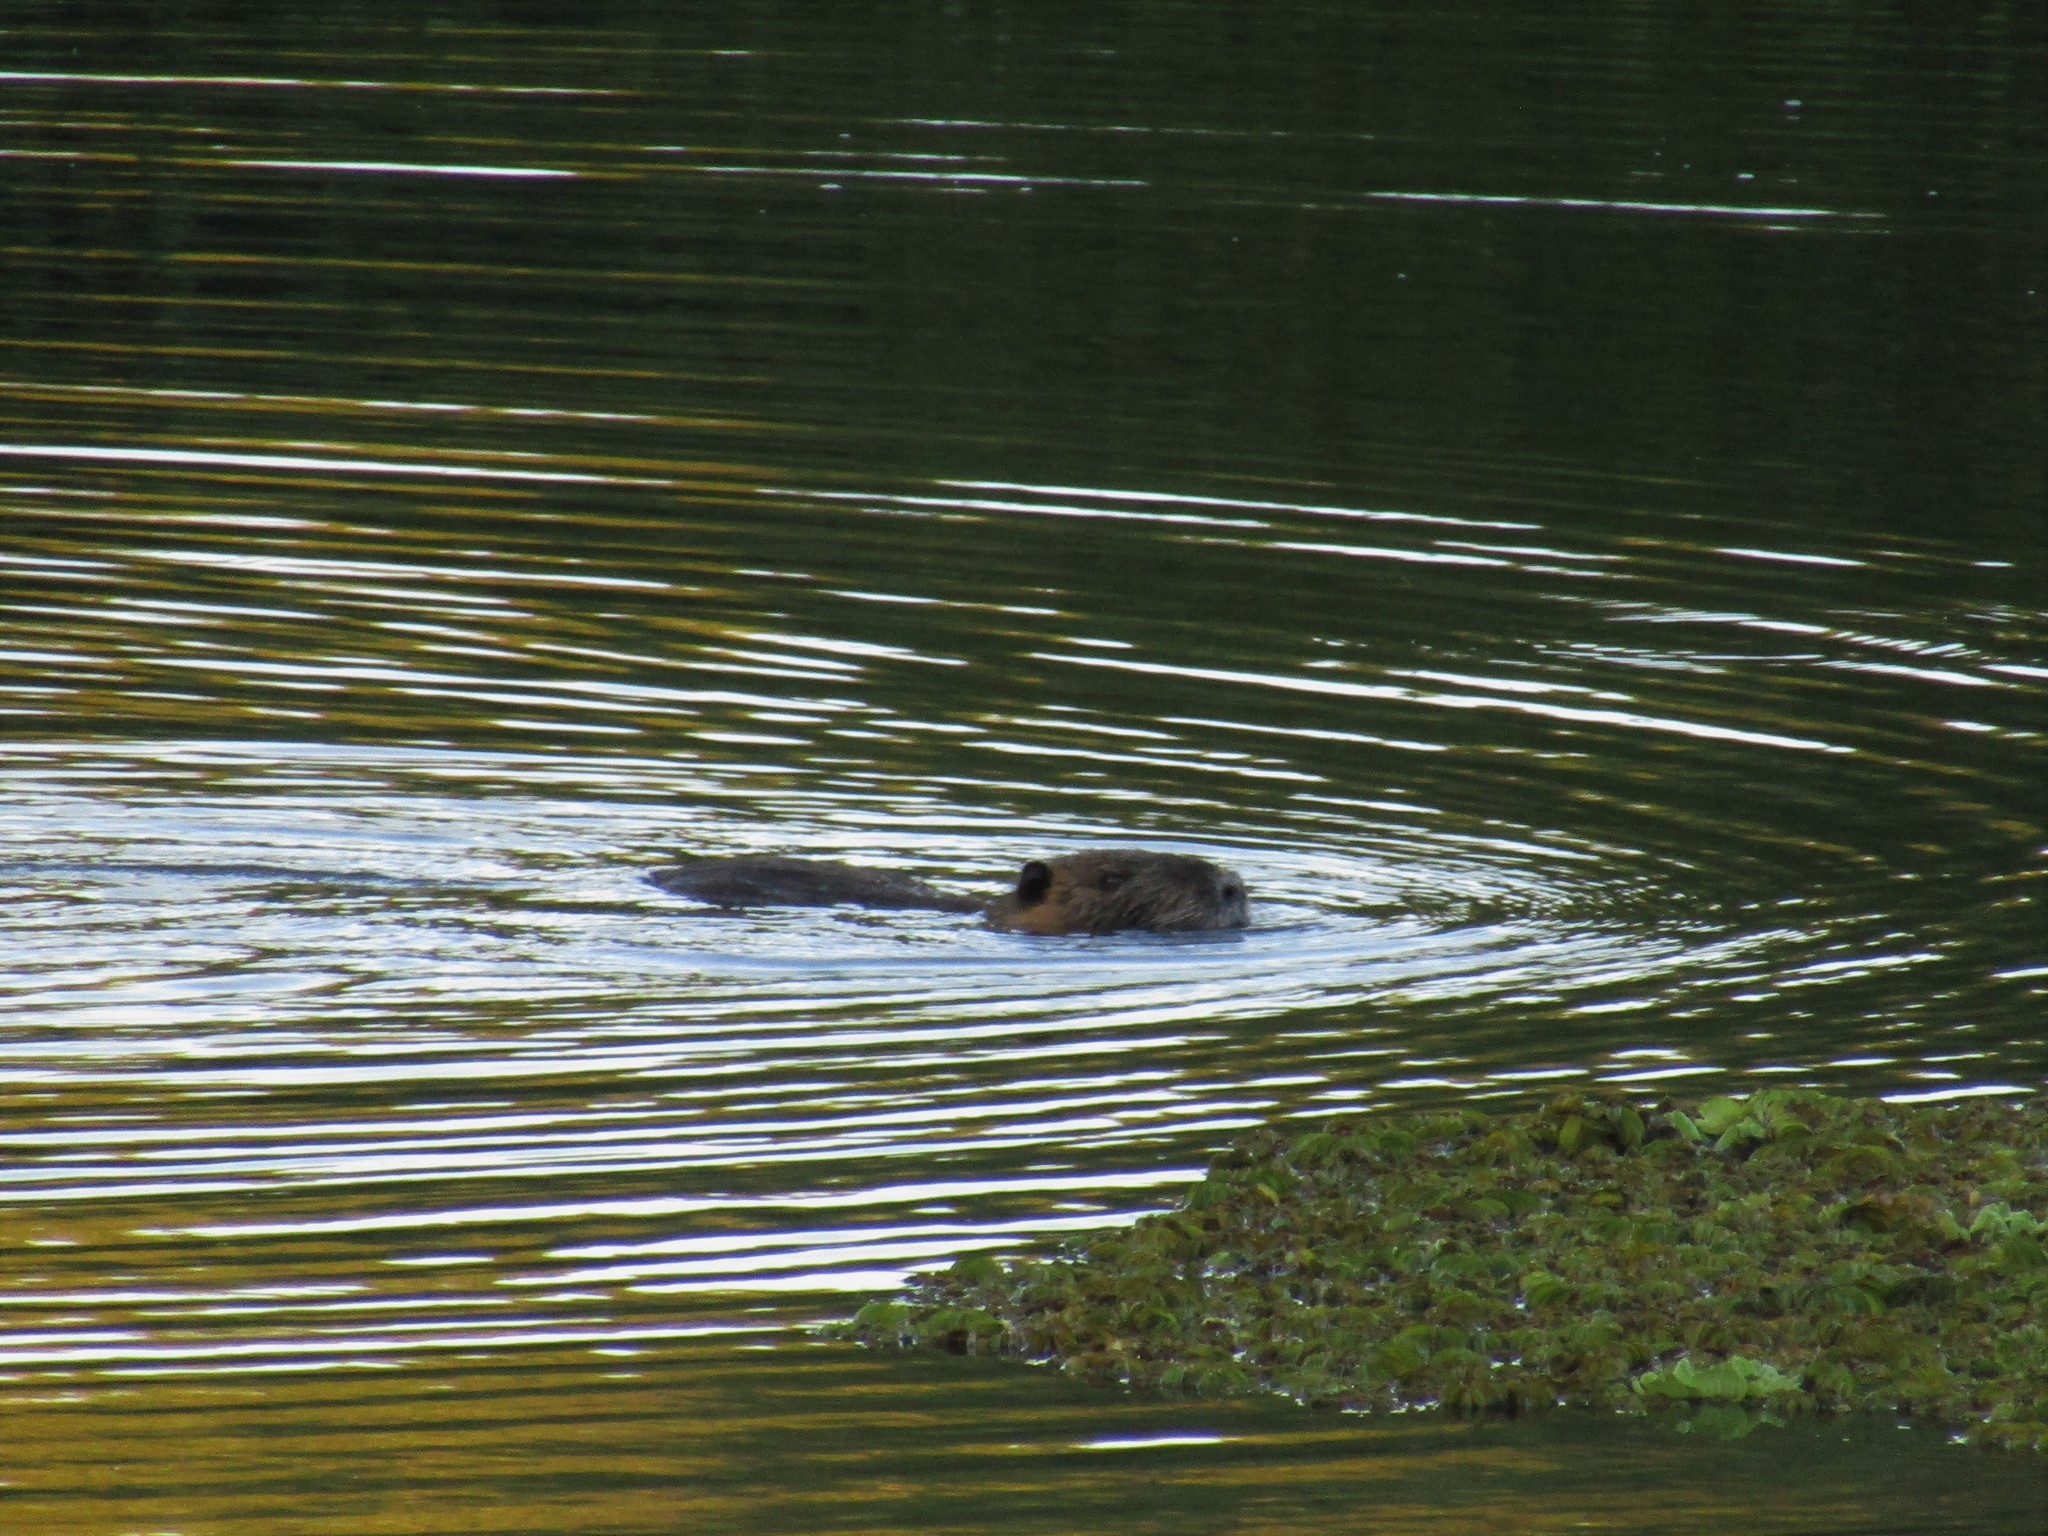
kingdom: Animalia
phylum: Chordata
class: Mammalia
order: Rodentia
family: Myocastoridae
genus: Myocastor
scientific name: Myocastor coypus
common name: Coypu
